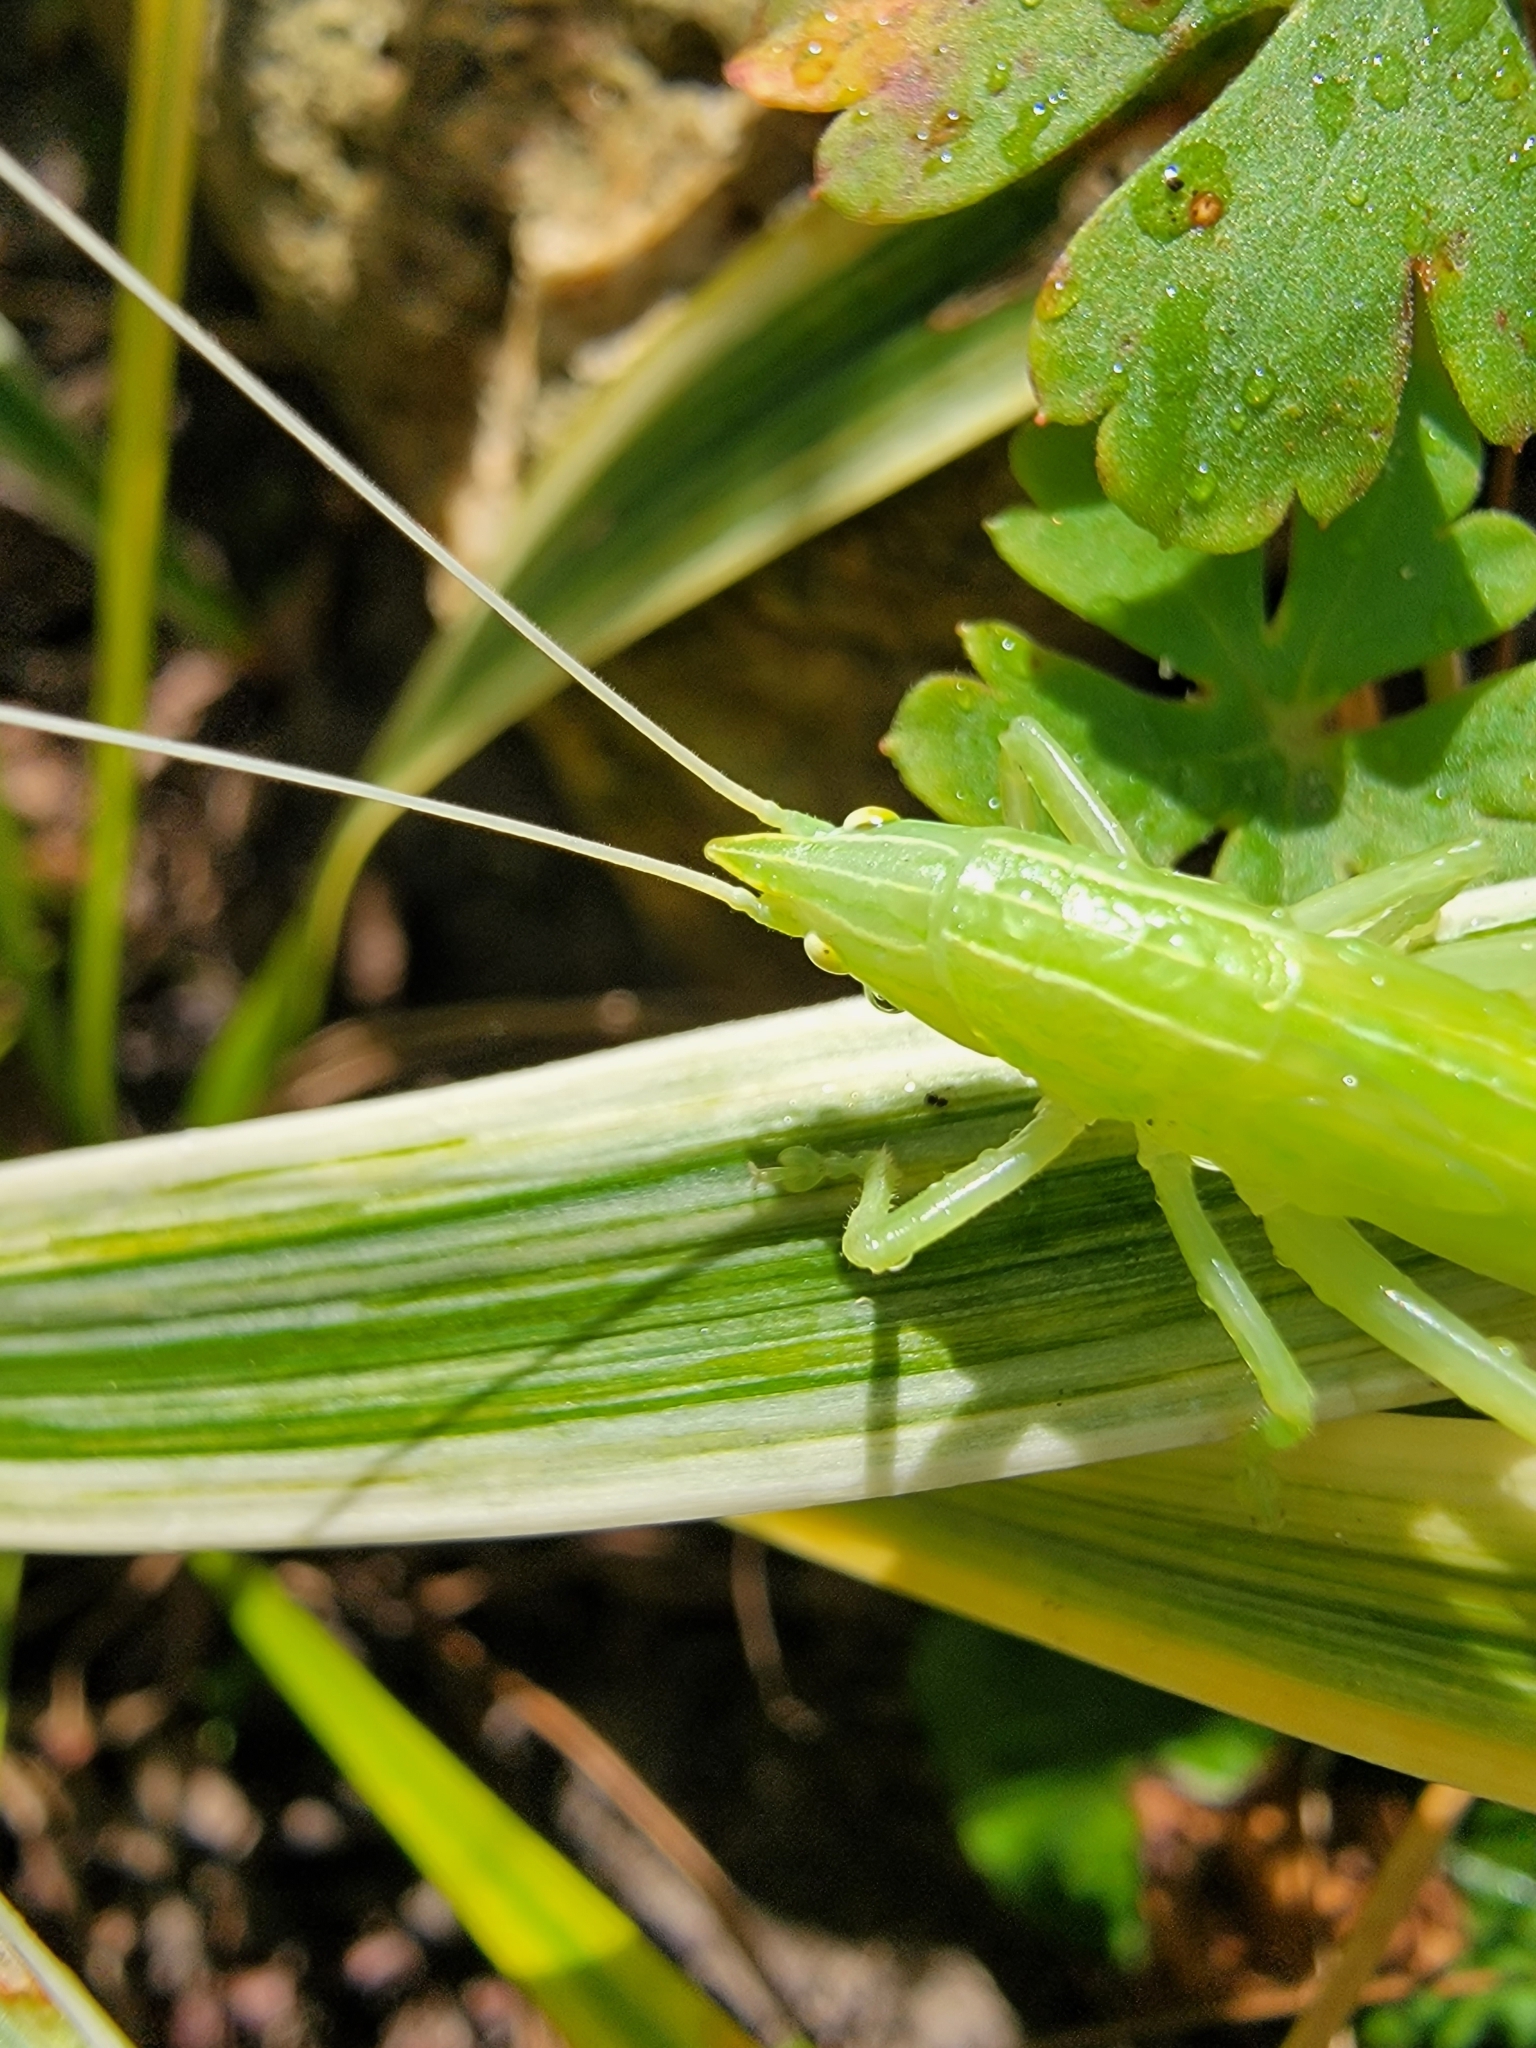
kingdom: Animalia
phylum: Arthropoda
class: Insecta
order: Orthoptera
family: Tettigoniidae
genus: Pyrgocorypha
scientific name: Pyrgocorypha uncinata
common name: Hook-faced conehead
